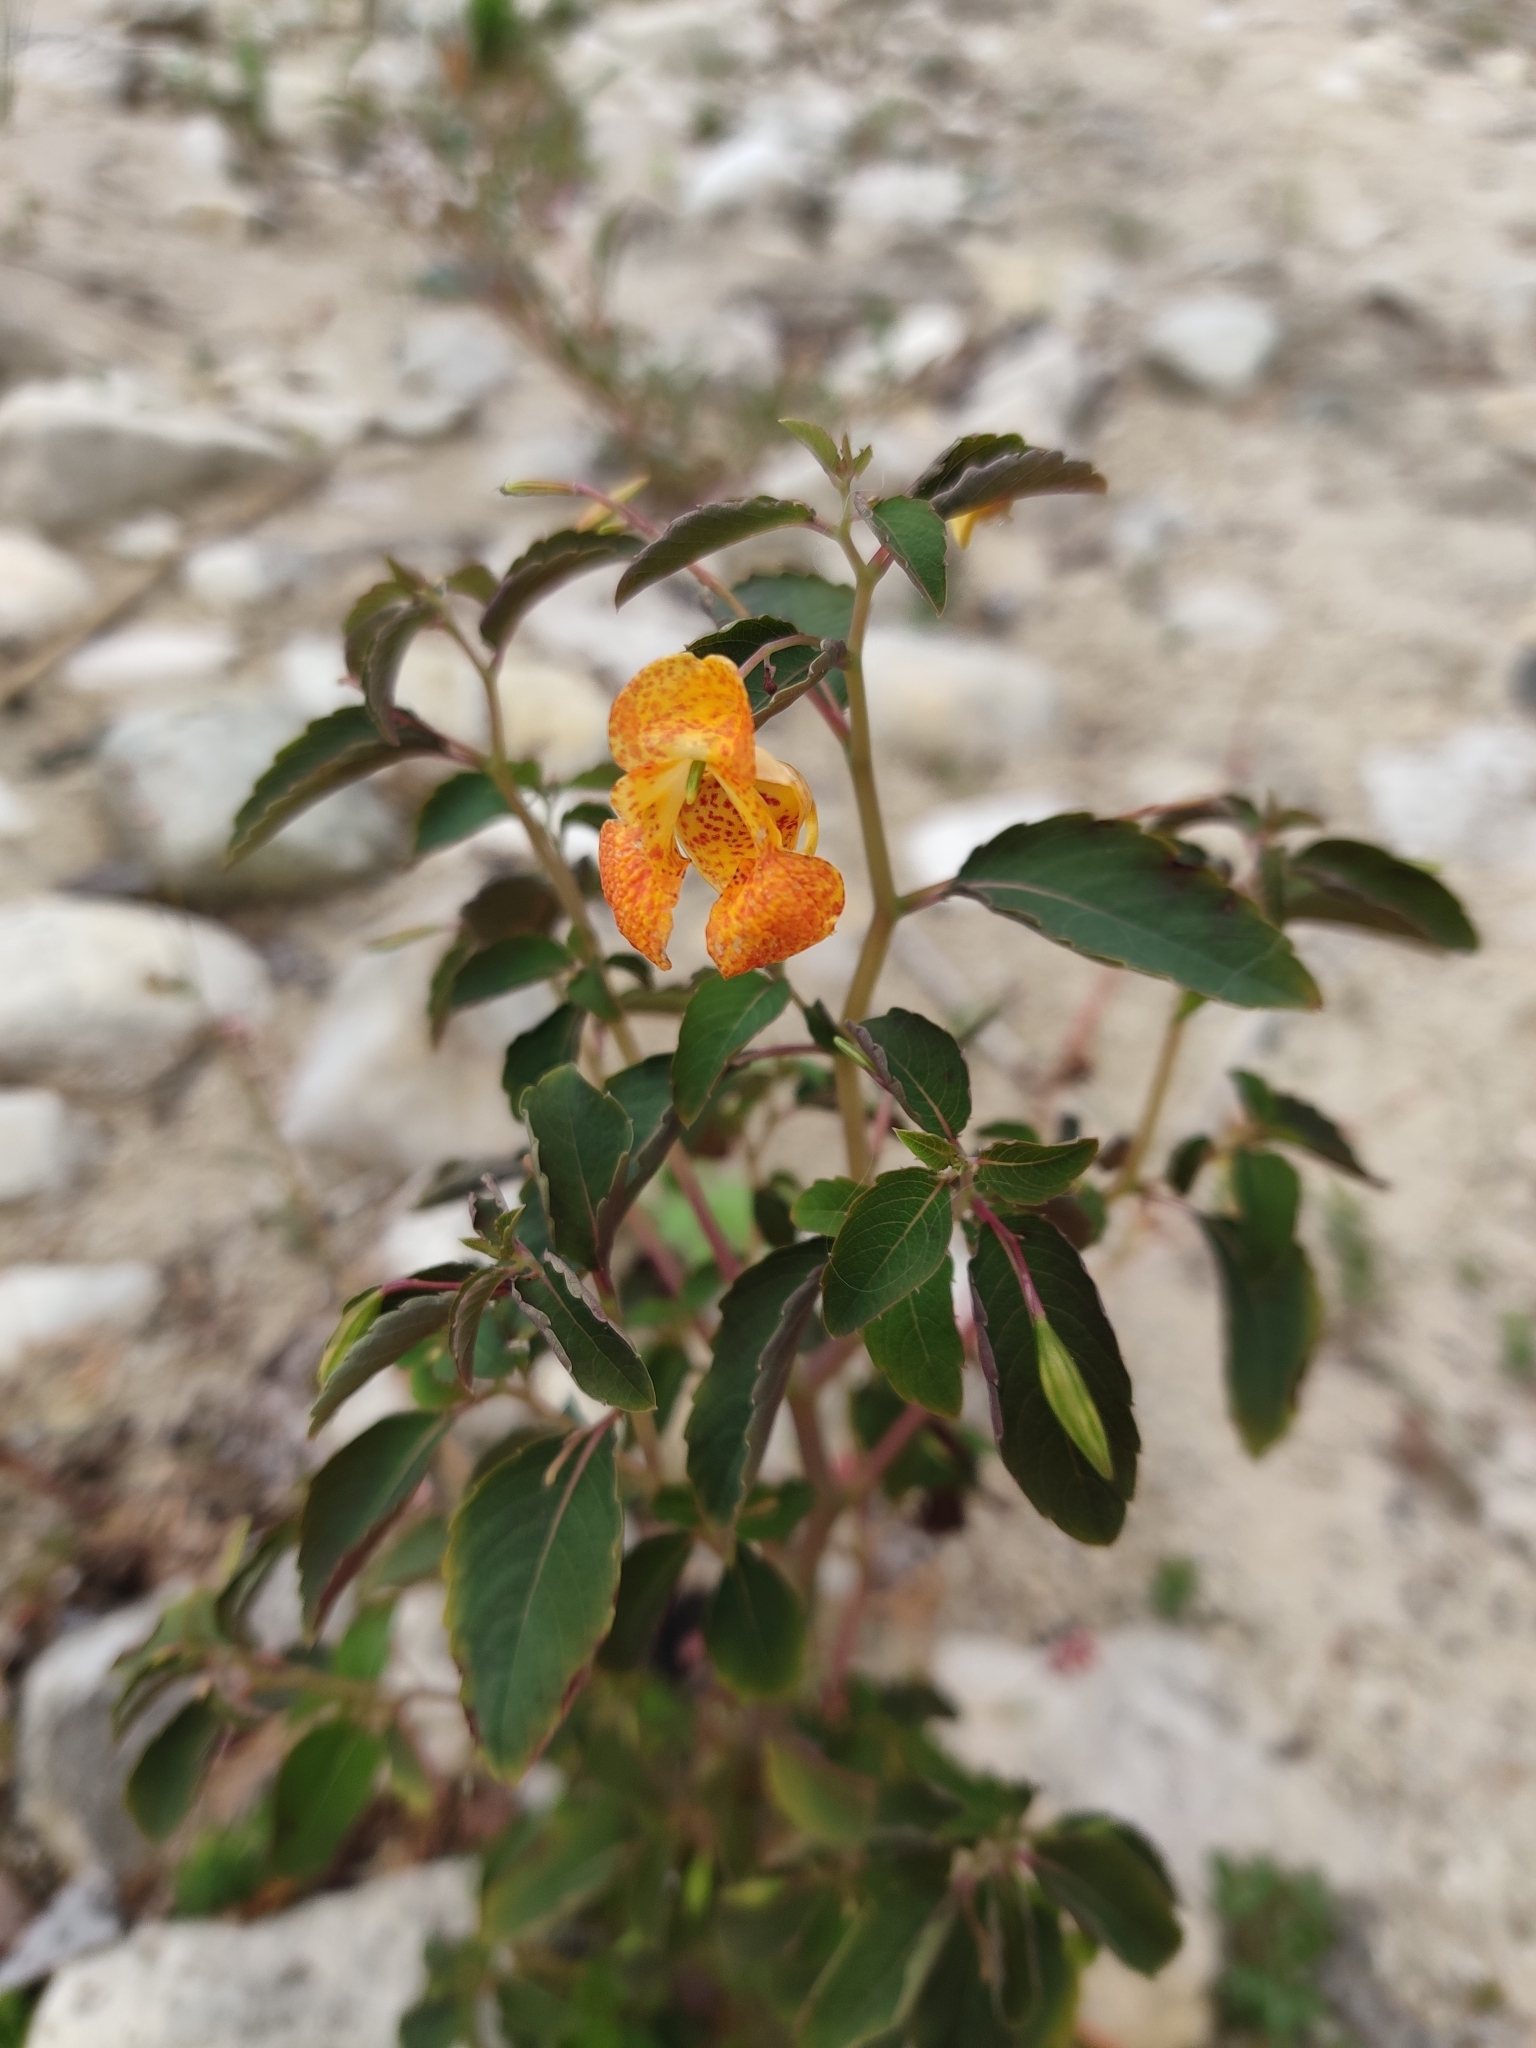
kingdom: Plantae
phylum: Tracheophyta
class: Magnoliopsida
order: Ericales
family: Balsaminaceae
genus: Impatiens
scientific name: Impatiens capensis
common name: Orange balsam
